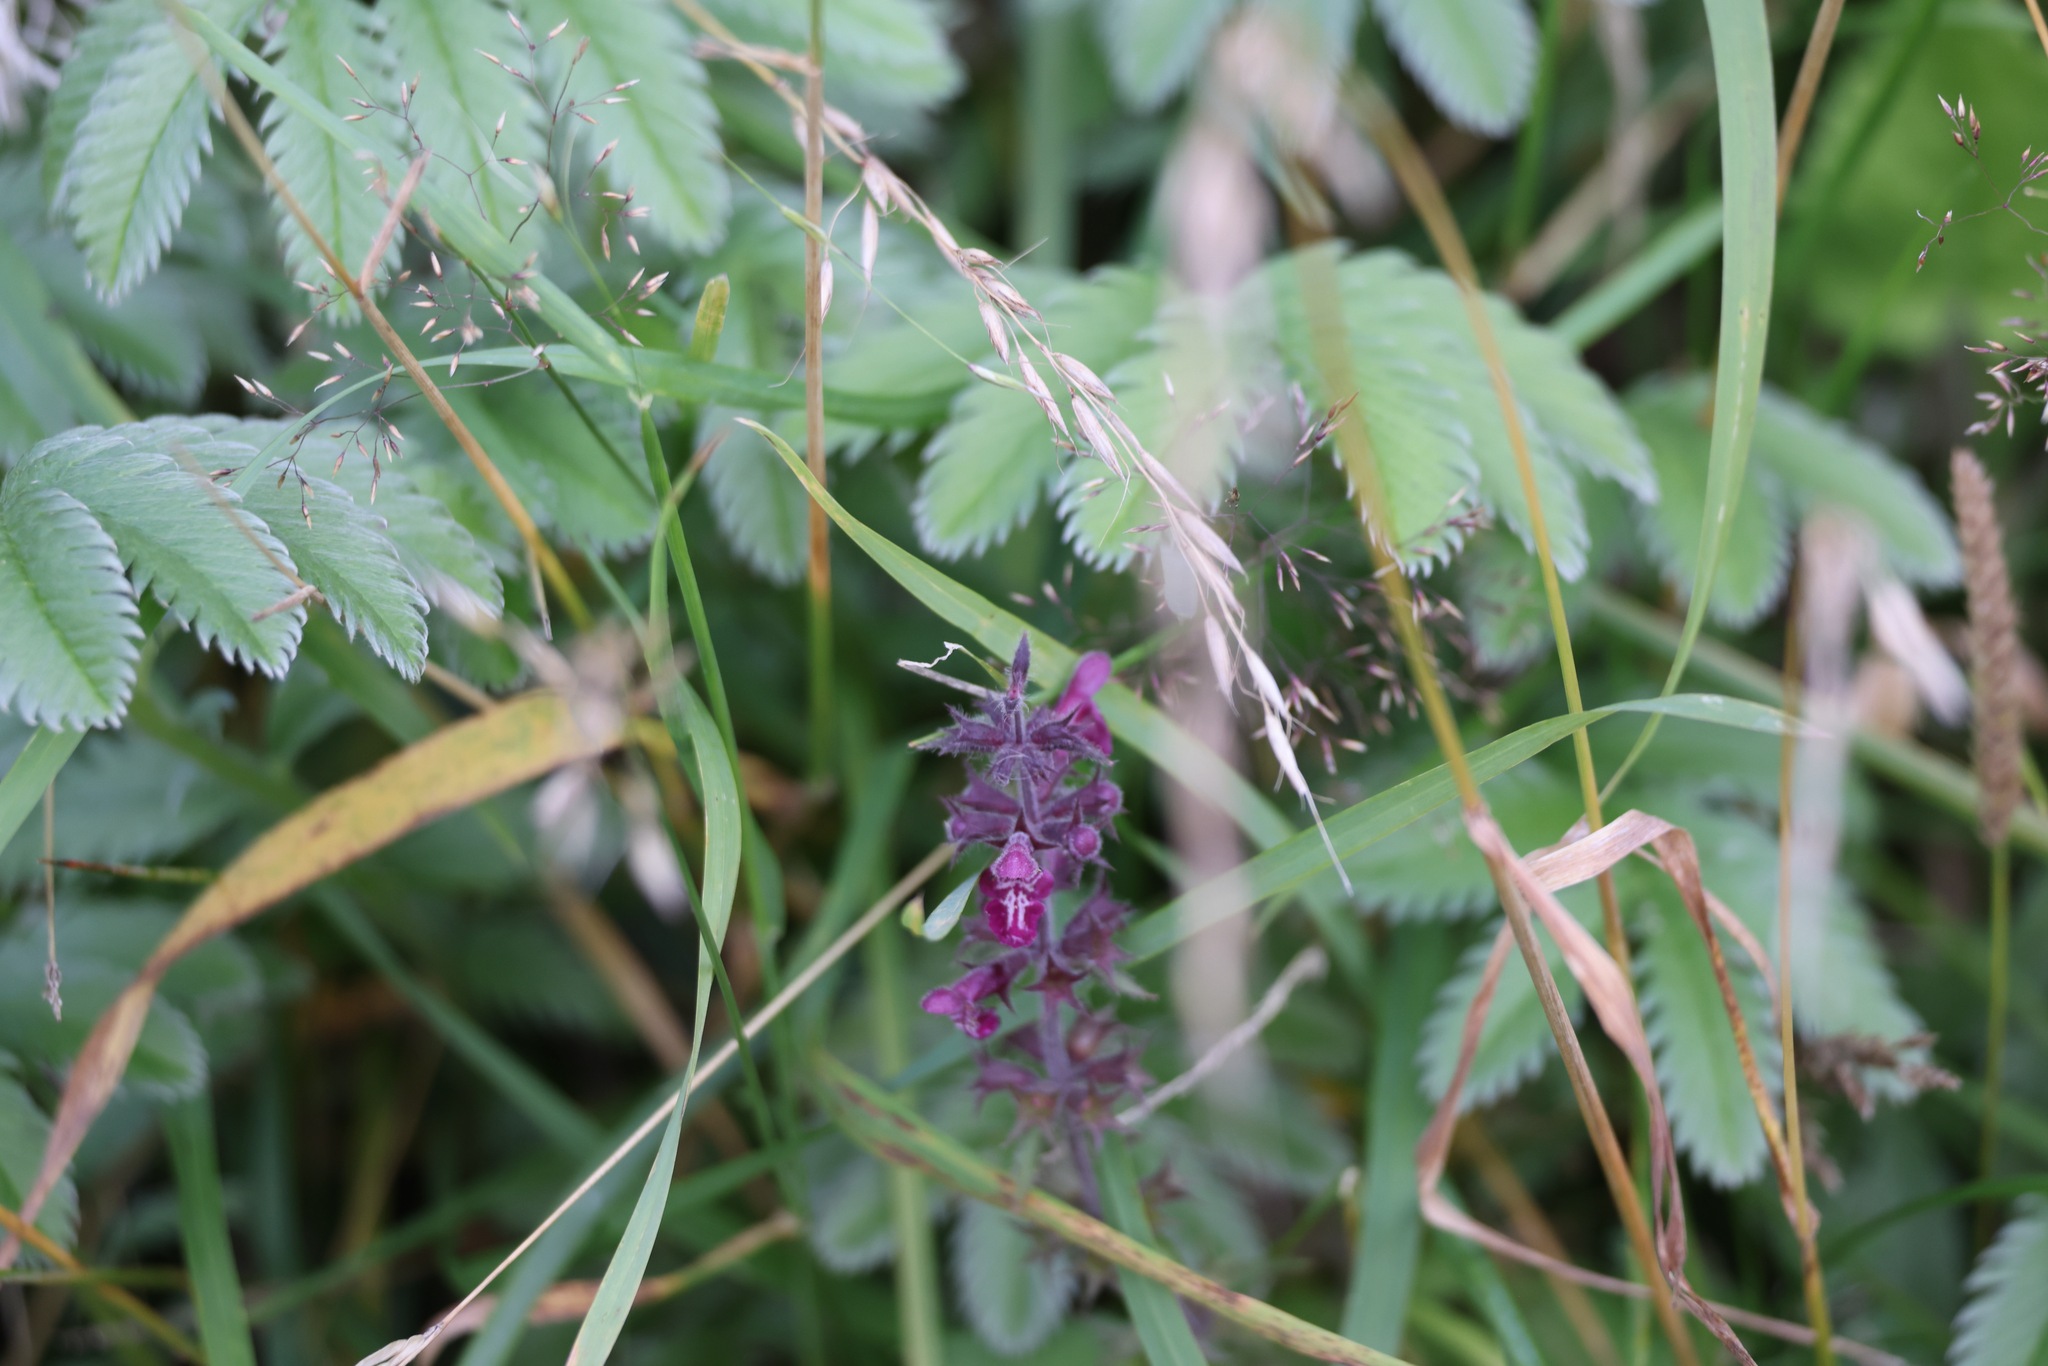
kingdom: Plantae
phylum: Tracheophyta
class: Magnoliopsida
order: Lamiales
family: Lamiaceae
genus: Stachys
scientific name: Stachys sylvatica
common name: Hedge woundwort
